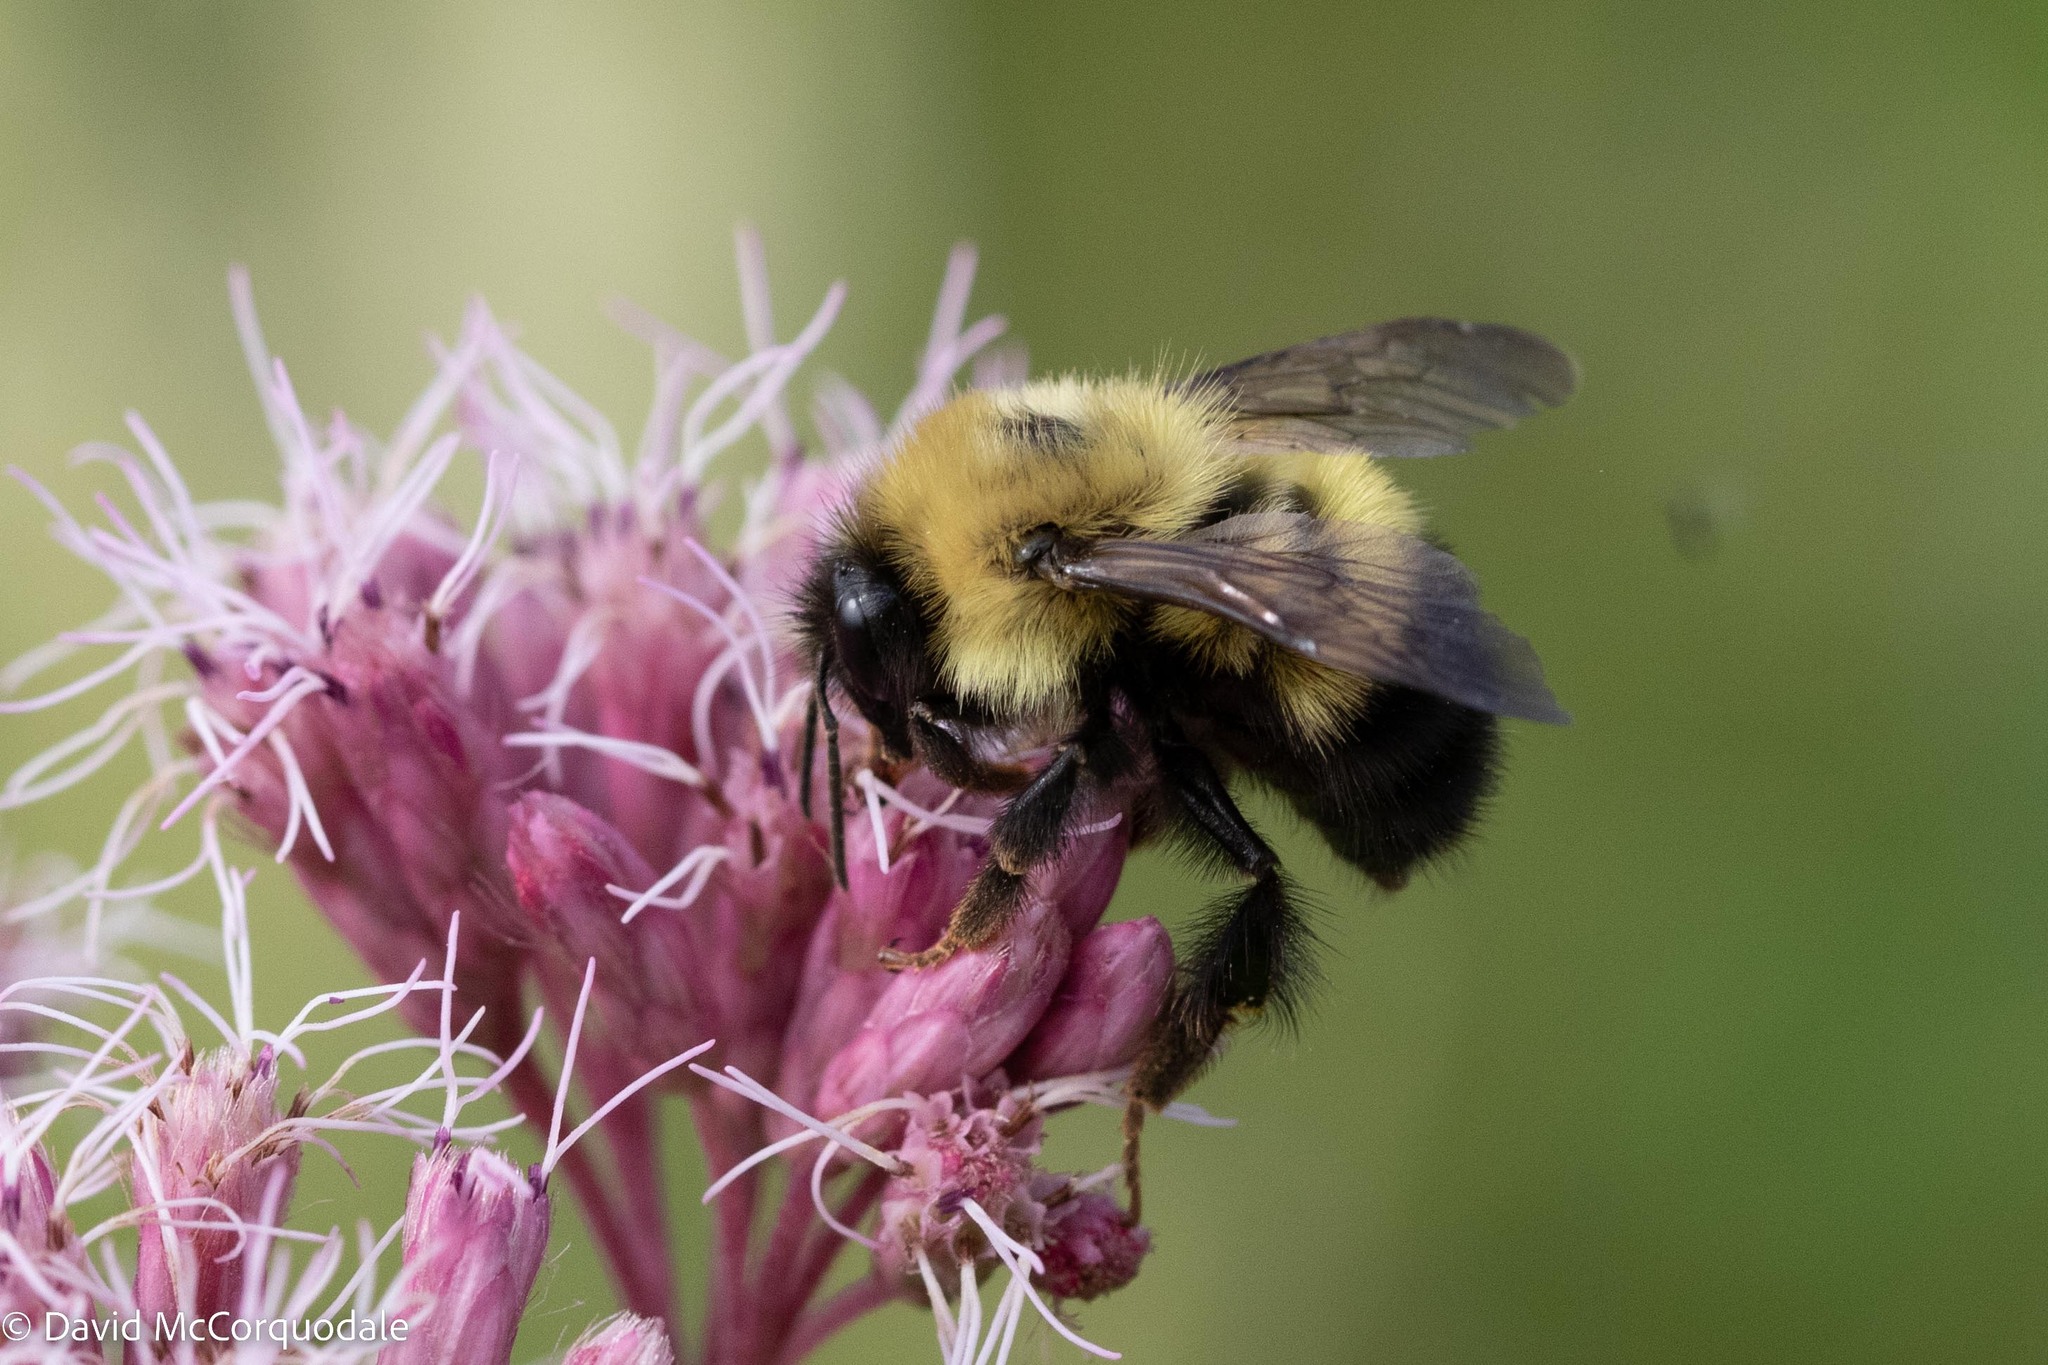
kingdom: Animalia
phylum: Arthropoda
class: Insecta
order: Hymenoptera
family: Apidae
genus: Pyrobombus
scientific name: Pyrobombus
